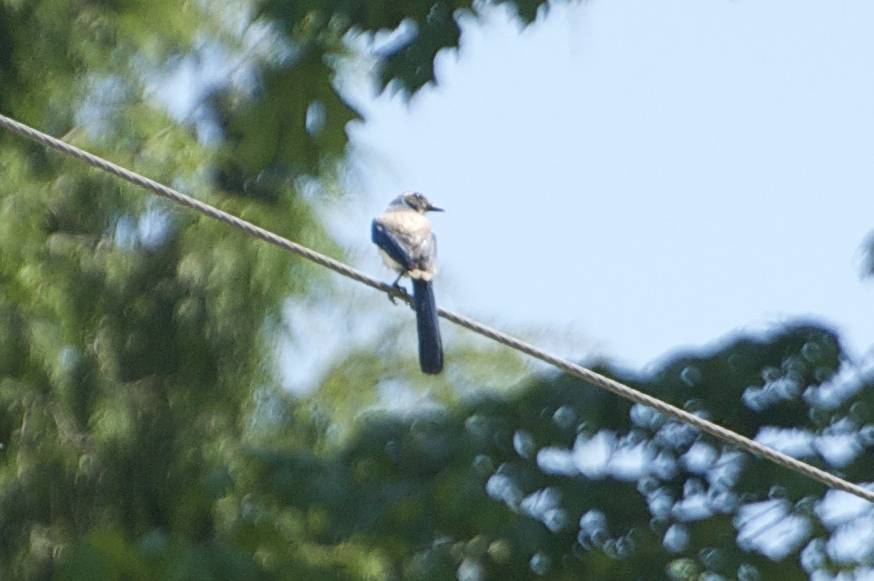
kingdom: Animalia
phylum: Chordata
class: Aves
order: Passeriformes
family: Corvidae
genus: Aphelocoma
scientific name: Aphelocoma californica
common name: California scrub-jay
